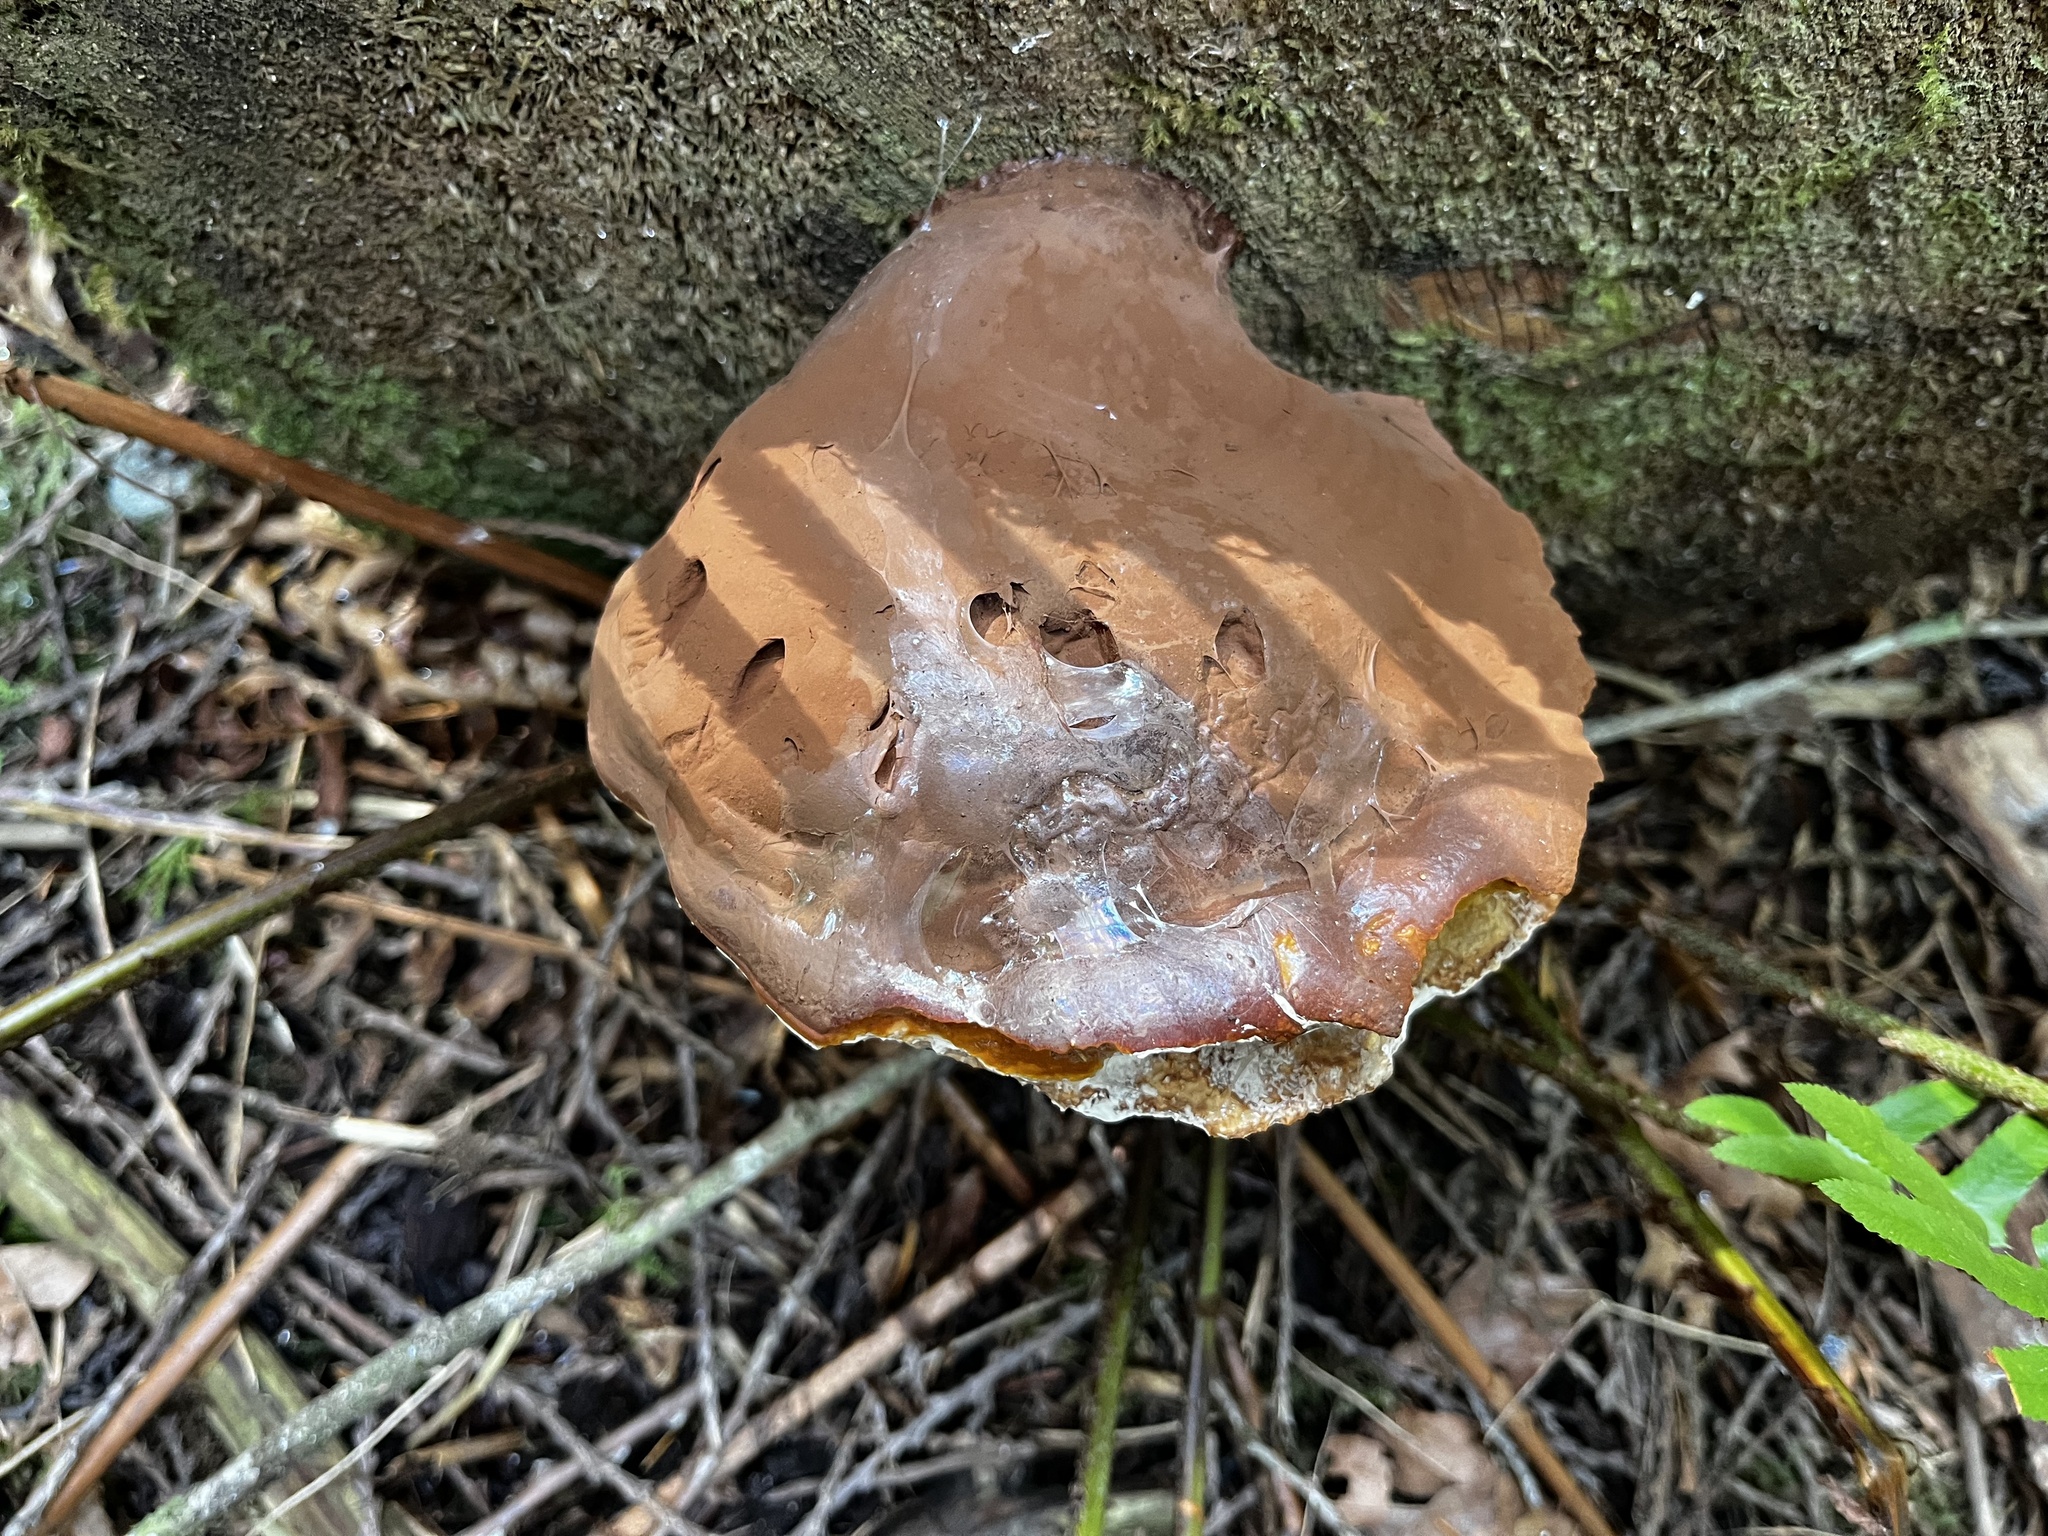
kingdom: Fungi
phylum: Basidiomycota
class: Agaricomycetes
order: Polyporales
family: Polyporaceae
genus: Ganoderma
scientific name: Ganoderma oregonense
